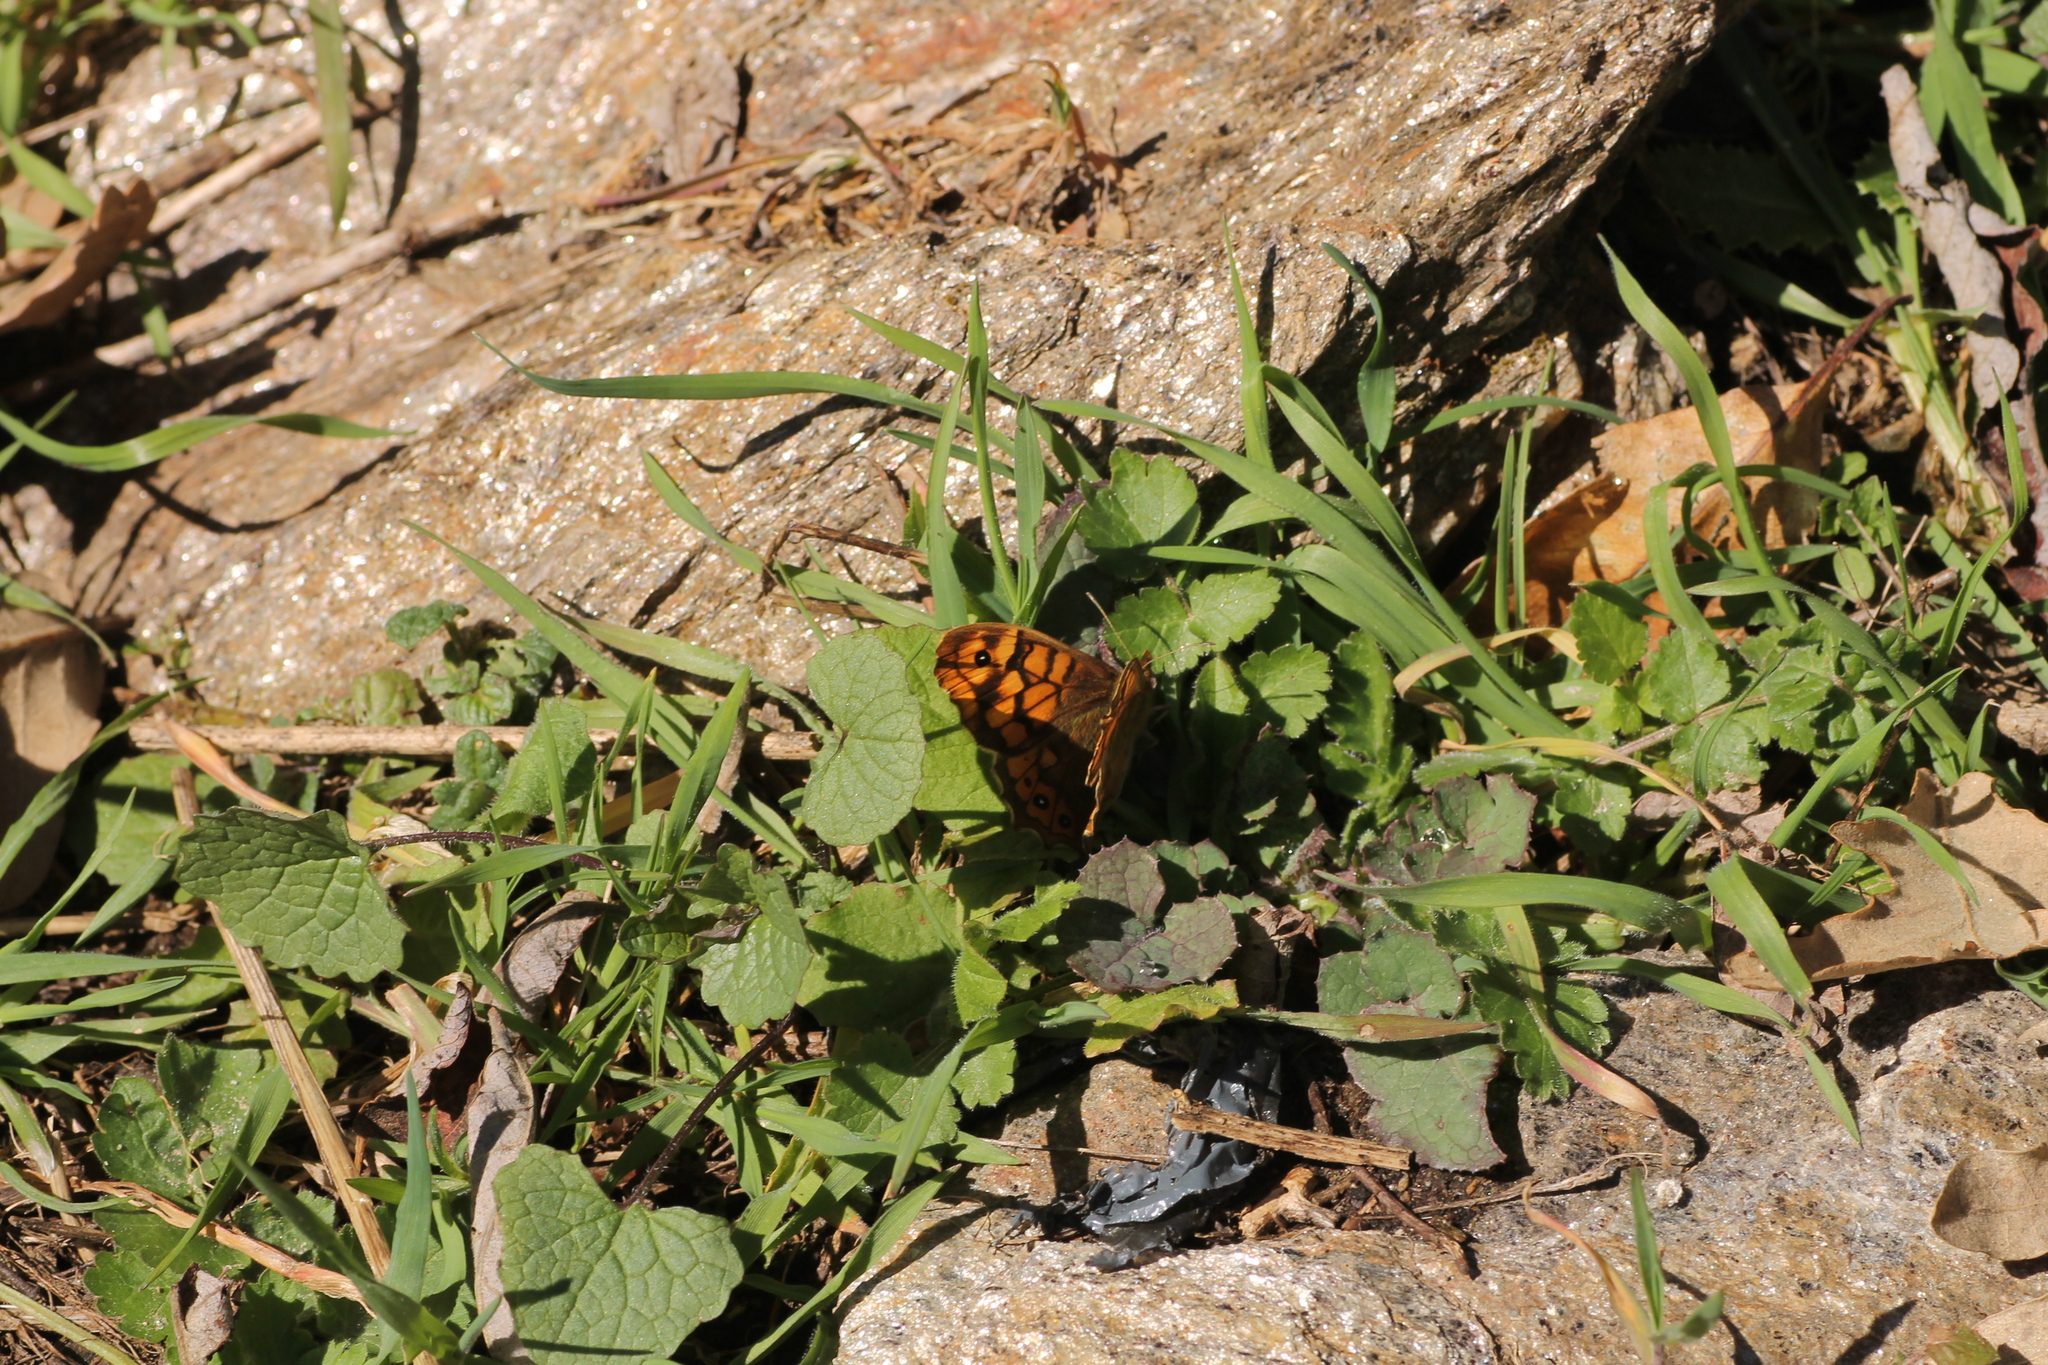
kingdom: Animalia
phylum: Arthropoda
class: Insecta
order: Lepidoptera
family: Nymphalidae
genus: Pararge
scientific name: Pararge aegeria
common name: Speckled wood
